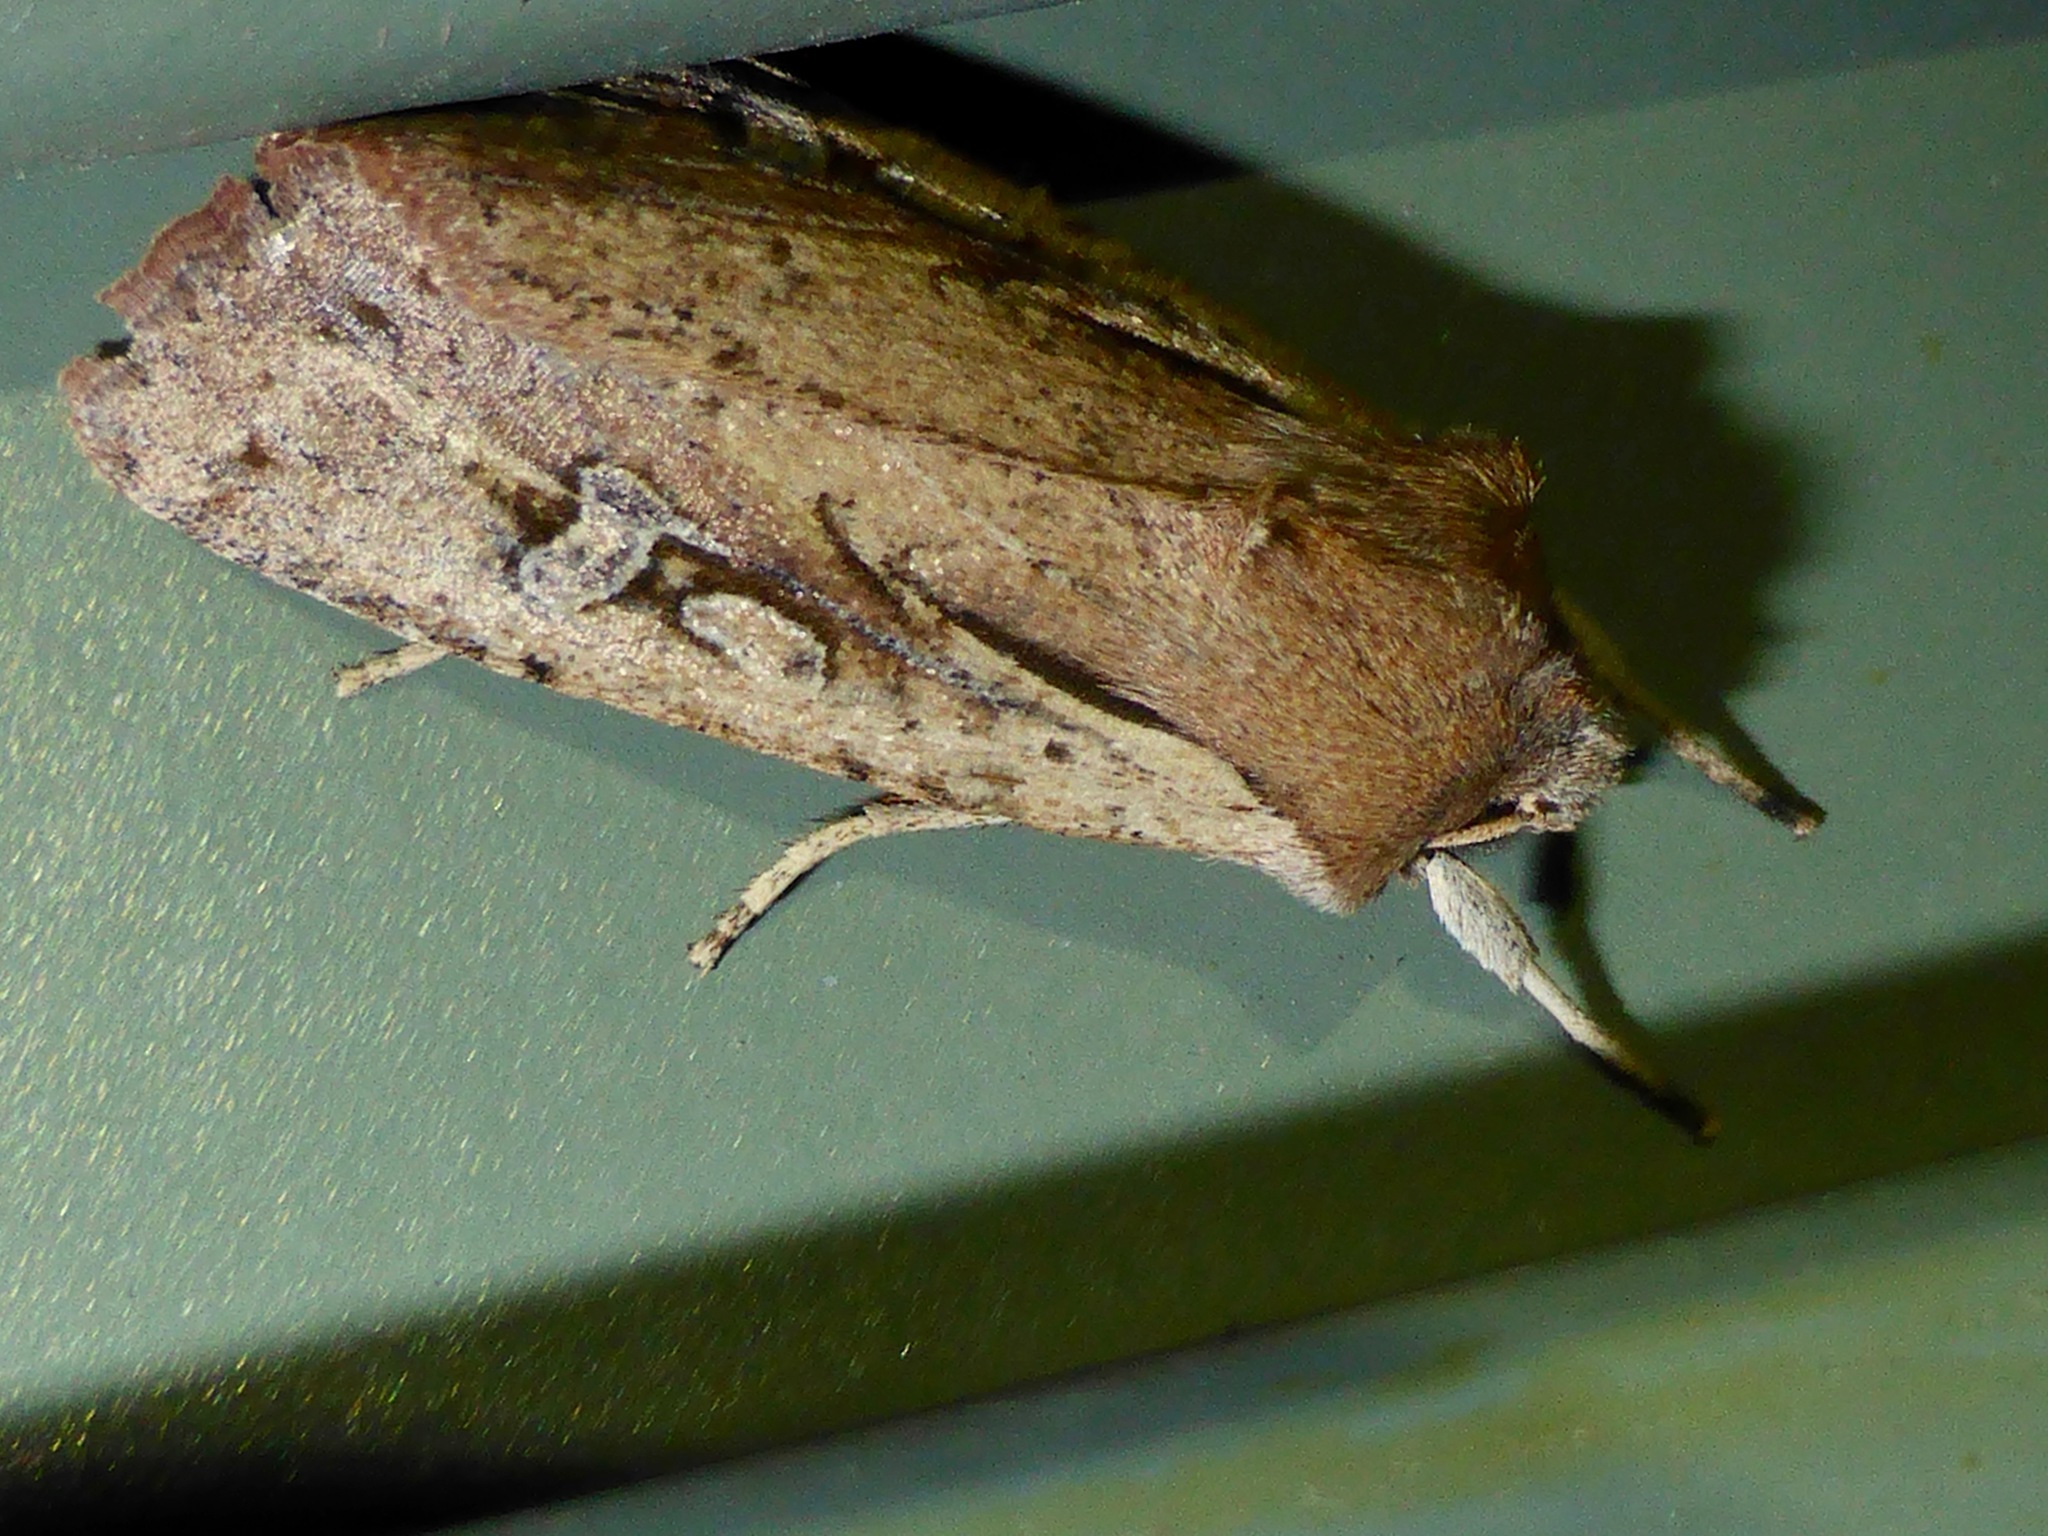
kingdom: Animalia
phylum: Arthropoda
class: Insecta
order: Lepidoptera
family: Noctuidae
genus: Ichneutica
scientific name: Ichneutica atristriga
